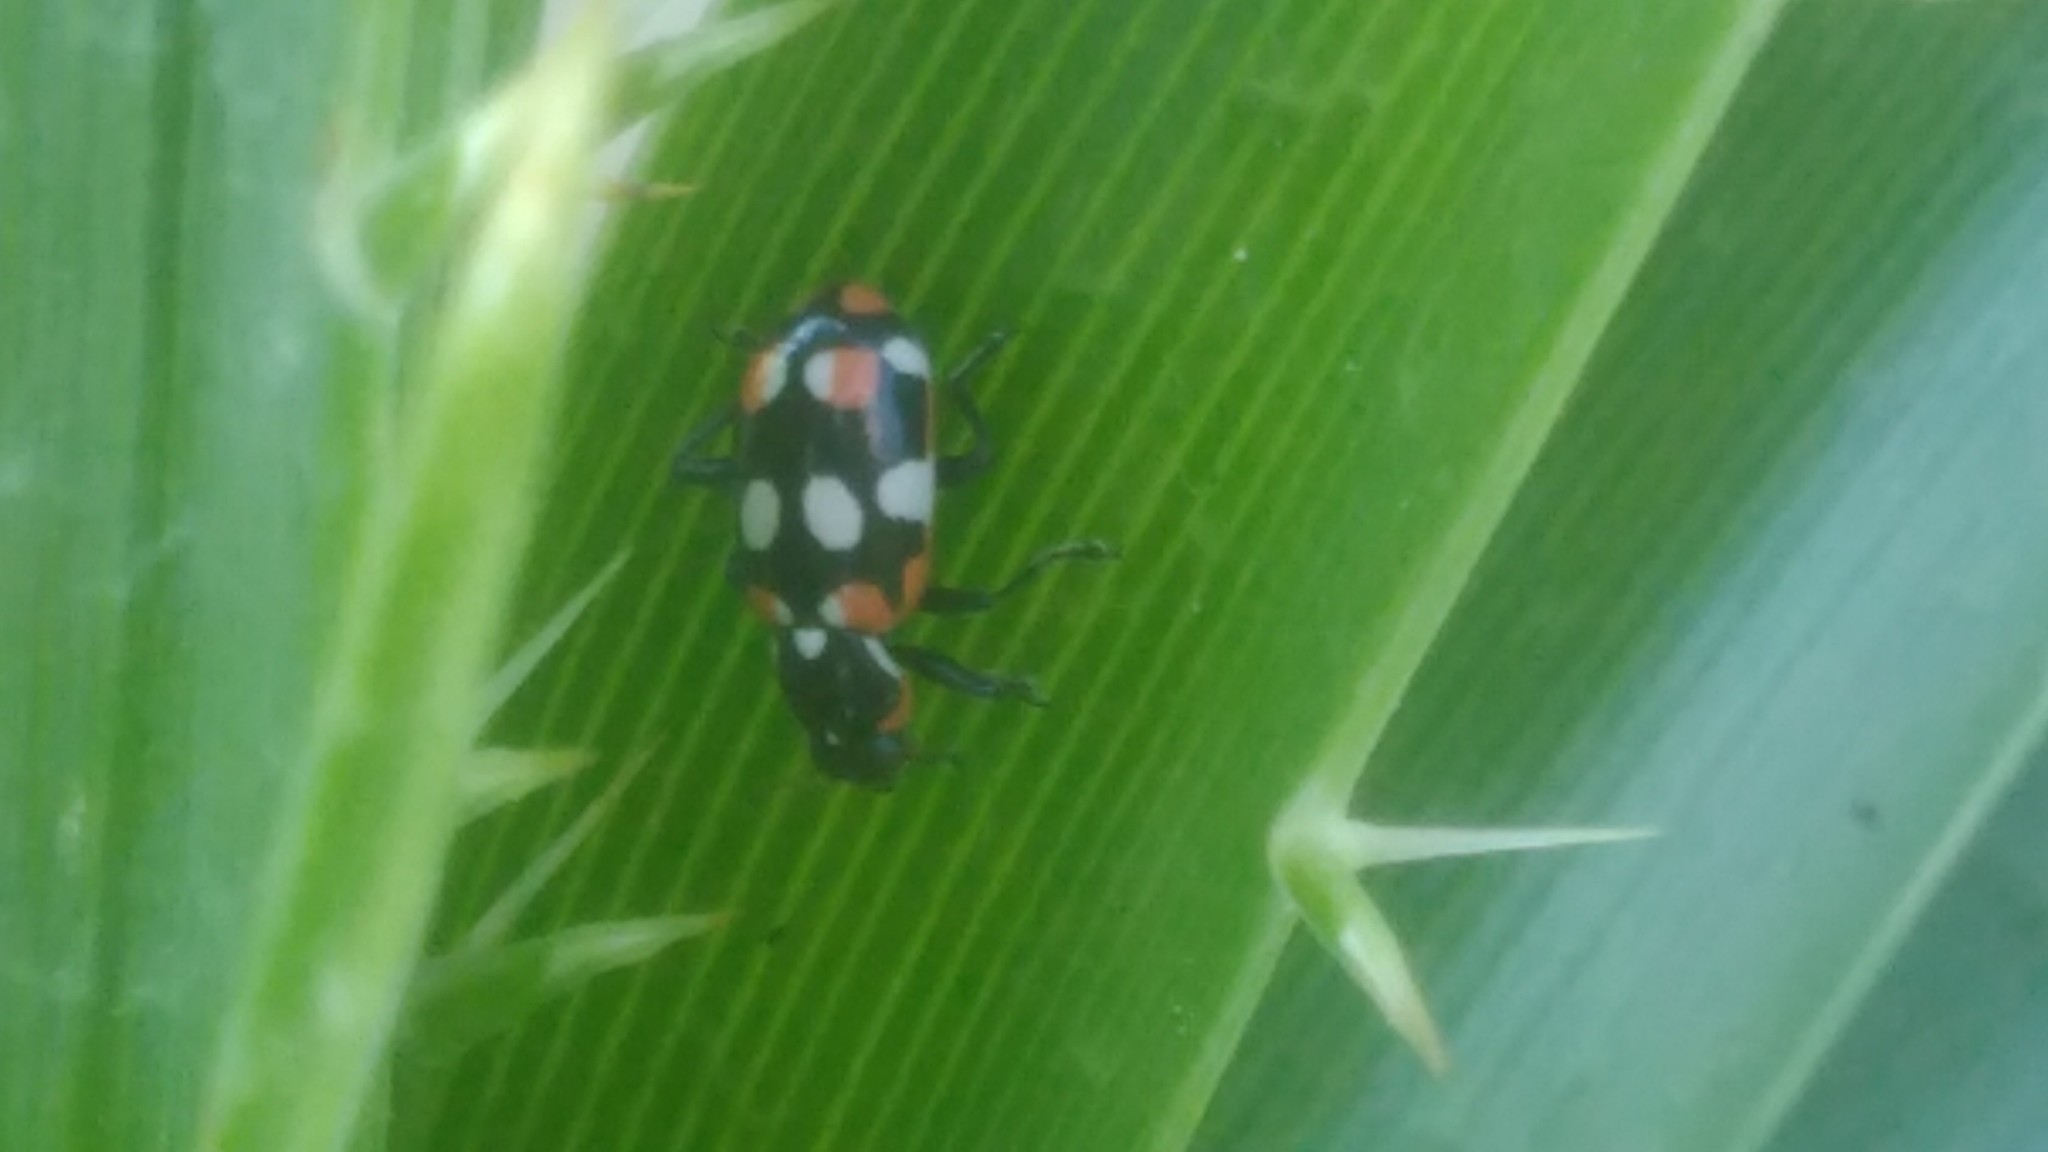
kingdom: Animalia
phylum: Arthropoda
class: Insecta
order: Coleoptera
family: Coccinellidae
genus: Eriopis
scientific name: Eriopis connexa
